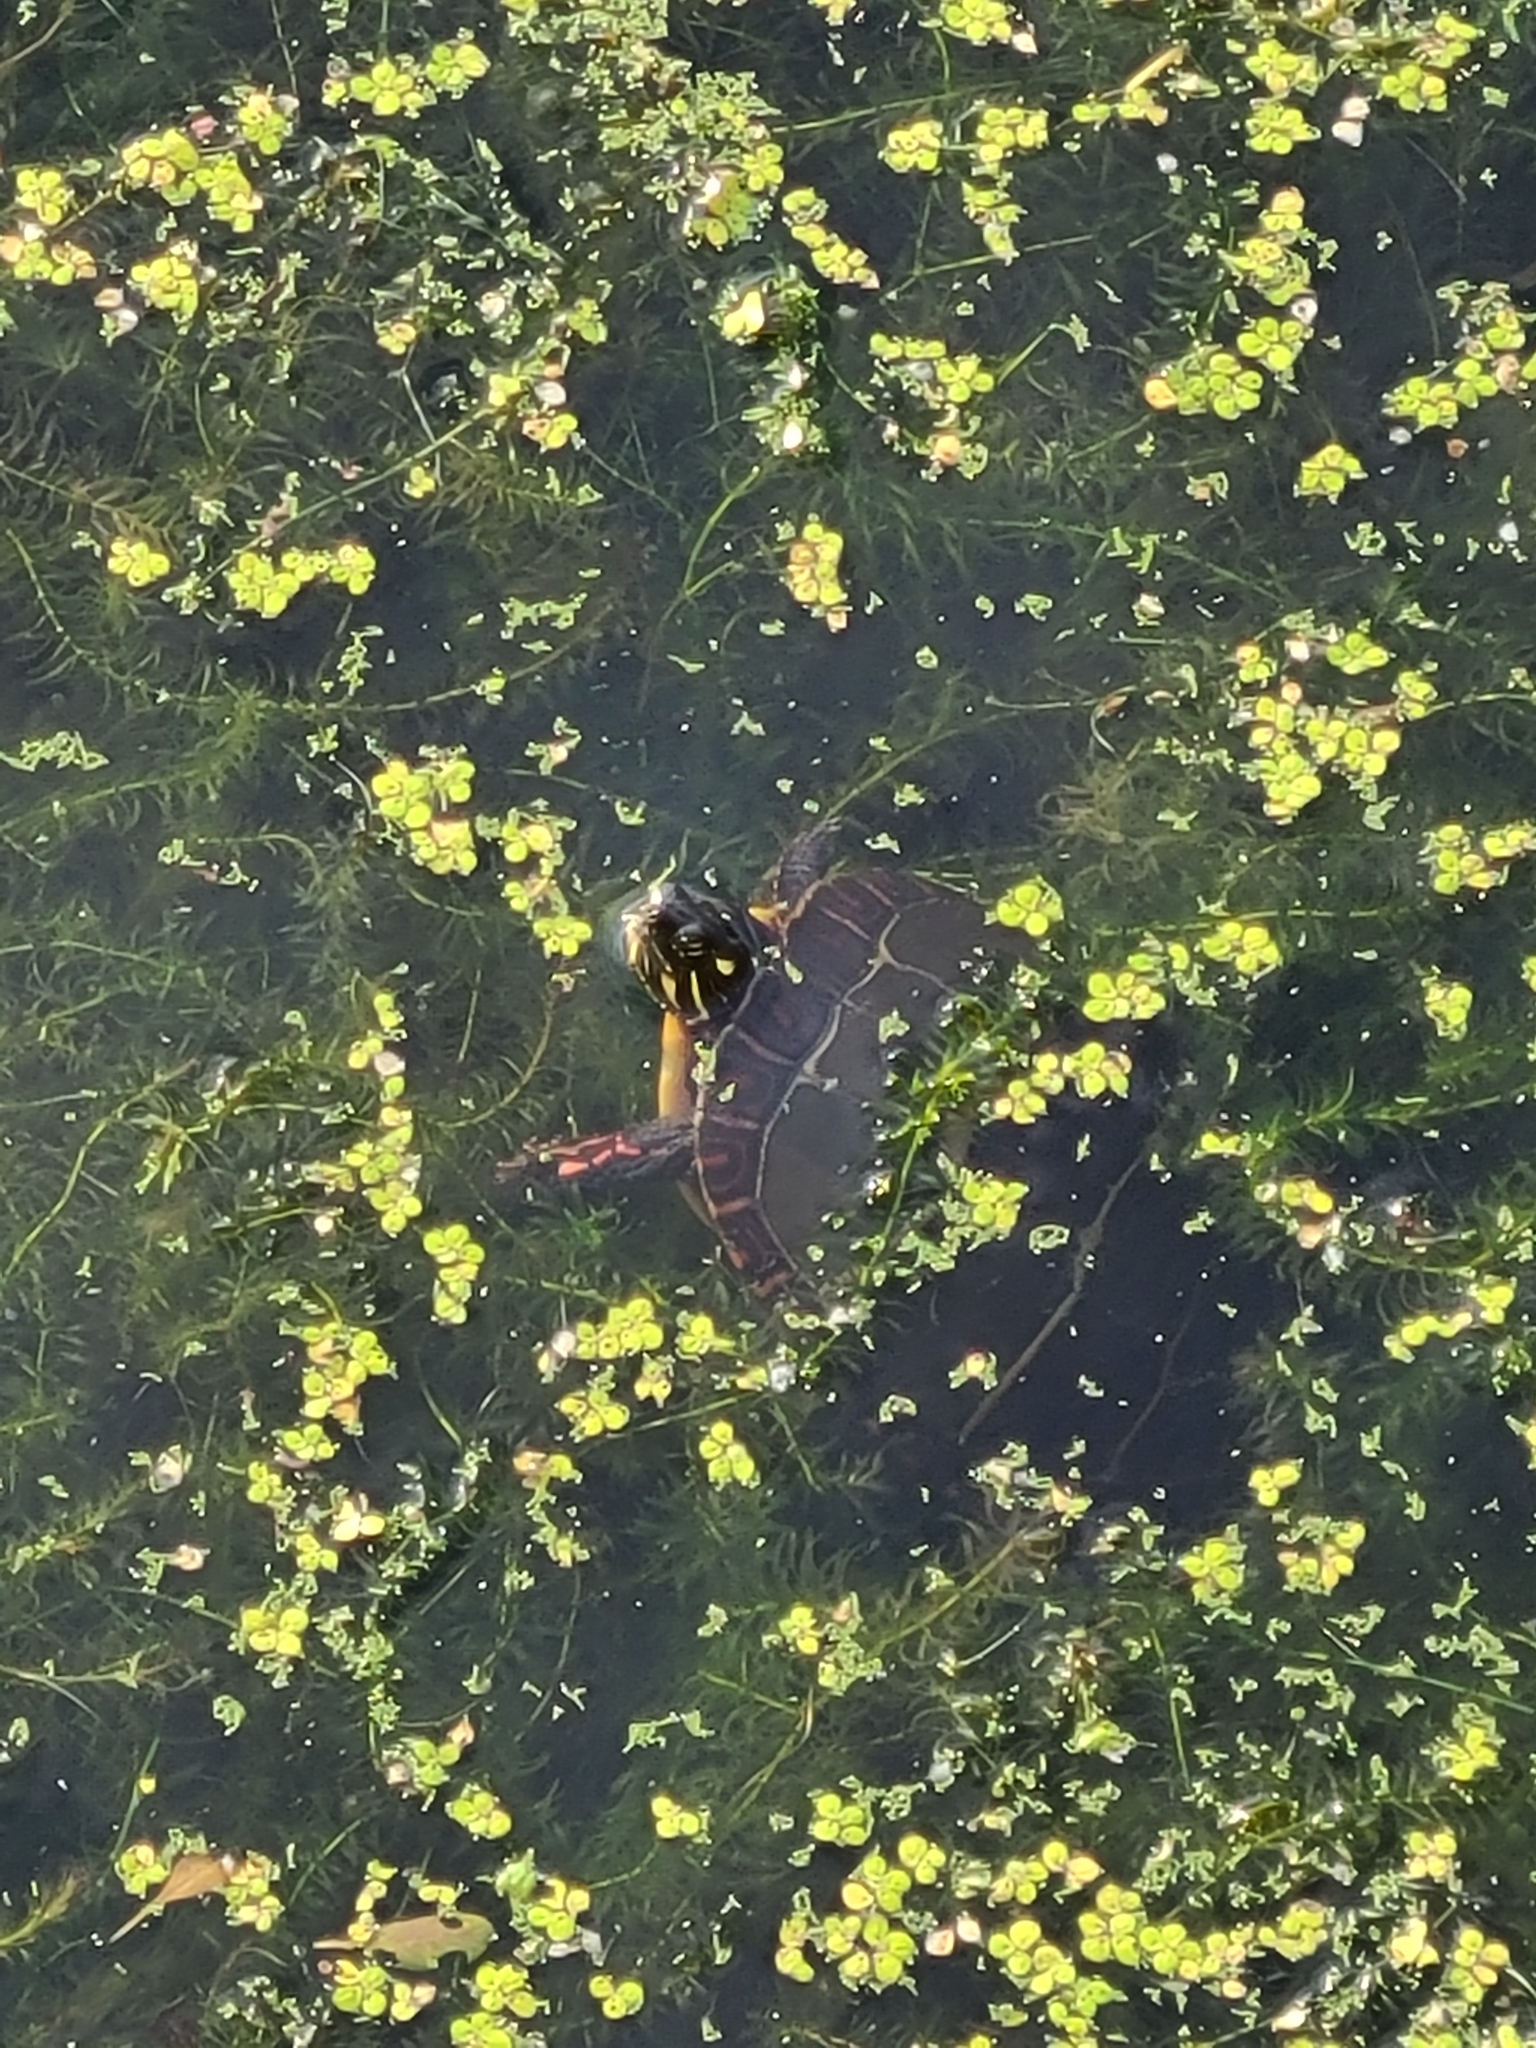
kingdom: Animalia
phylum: Chordata
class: Testudines
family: Emydidae
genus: Chrysemys
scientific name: Chrysemys picta
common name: Painted turtle
